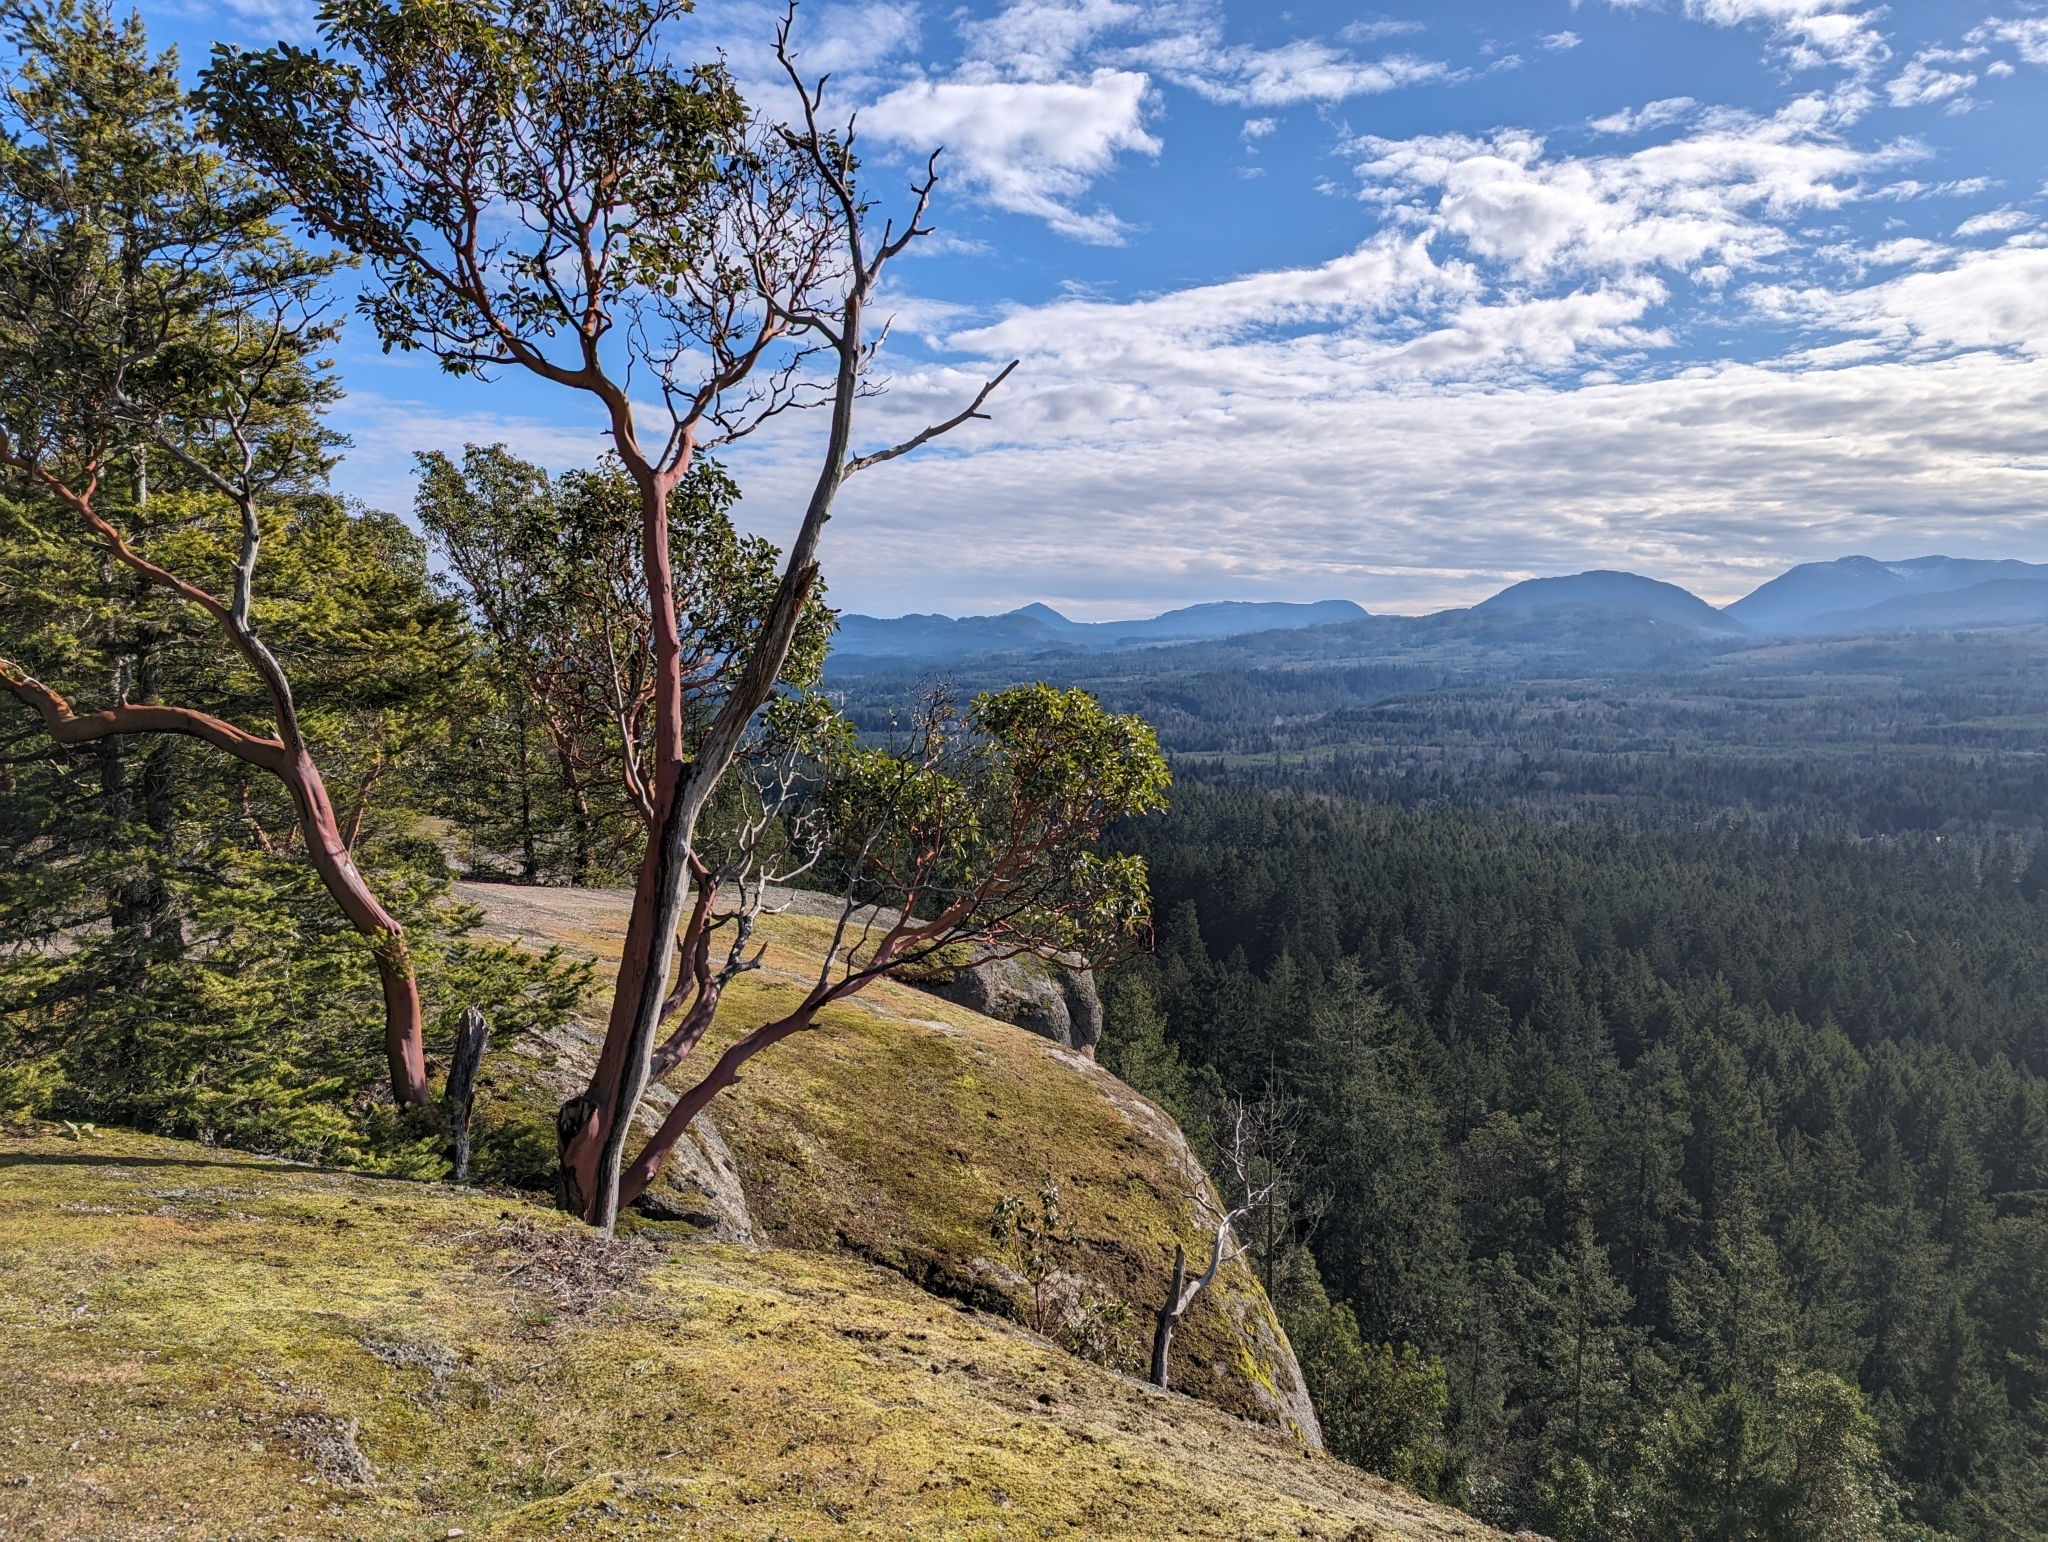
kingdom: Plantae
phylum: Tracheophyta
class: Magnoliopsida
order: Ericales
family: Ericaceae
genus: Arbutus
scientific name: Arbutus menziesii
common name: Pacific madrone
